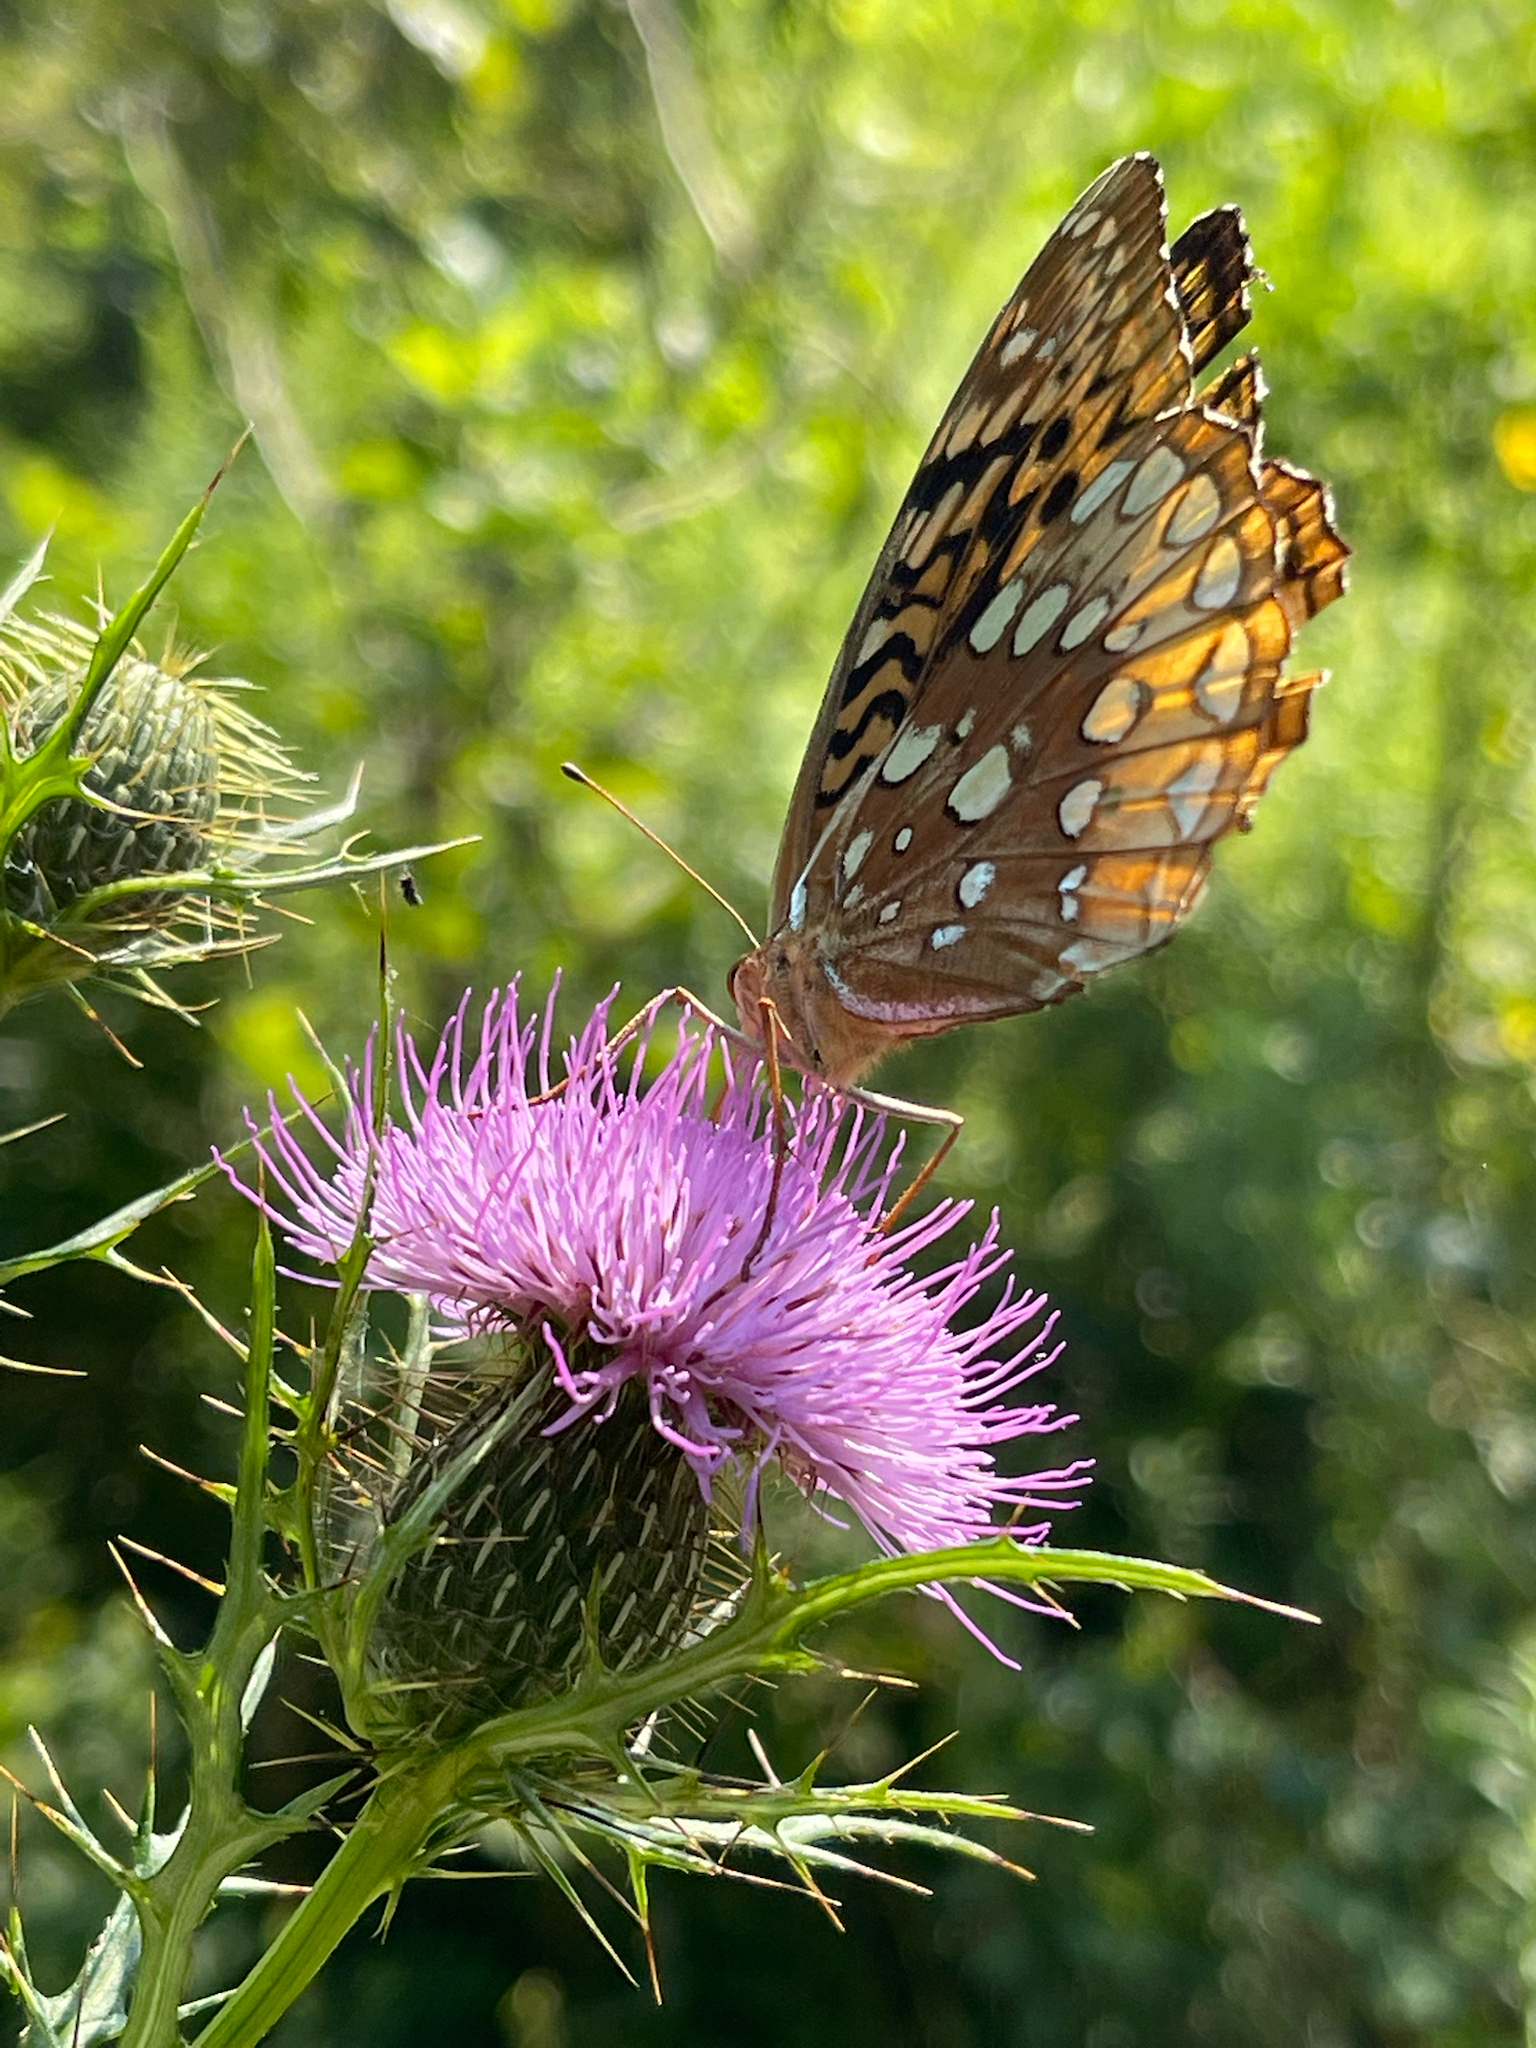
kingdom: Animalia
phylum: Arthropoda
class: Insecta
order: Lepidoptera
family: Nymphalidae
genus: Speyeria
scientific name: Speyeria cybele
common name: Great spangled fritillary
